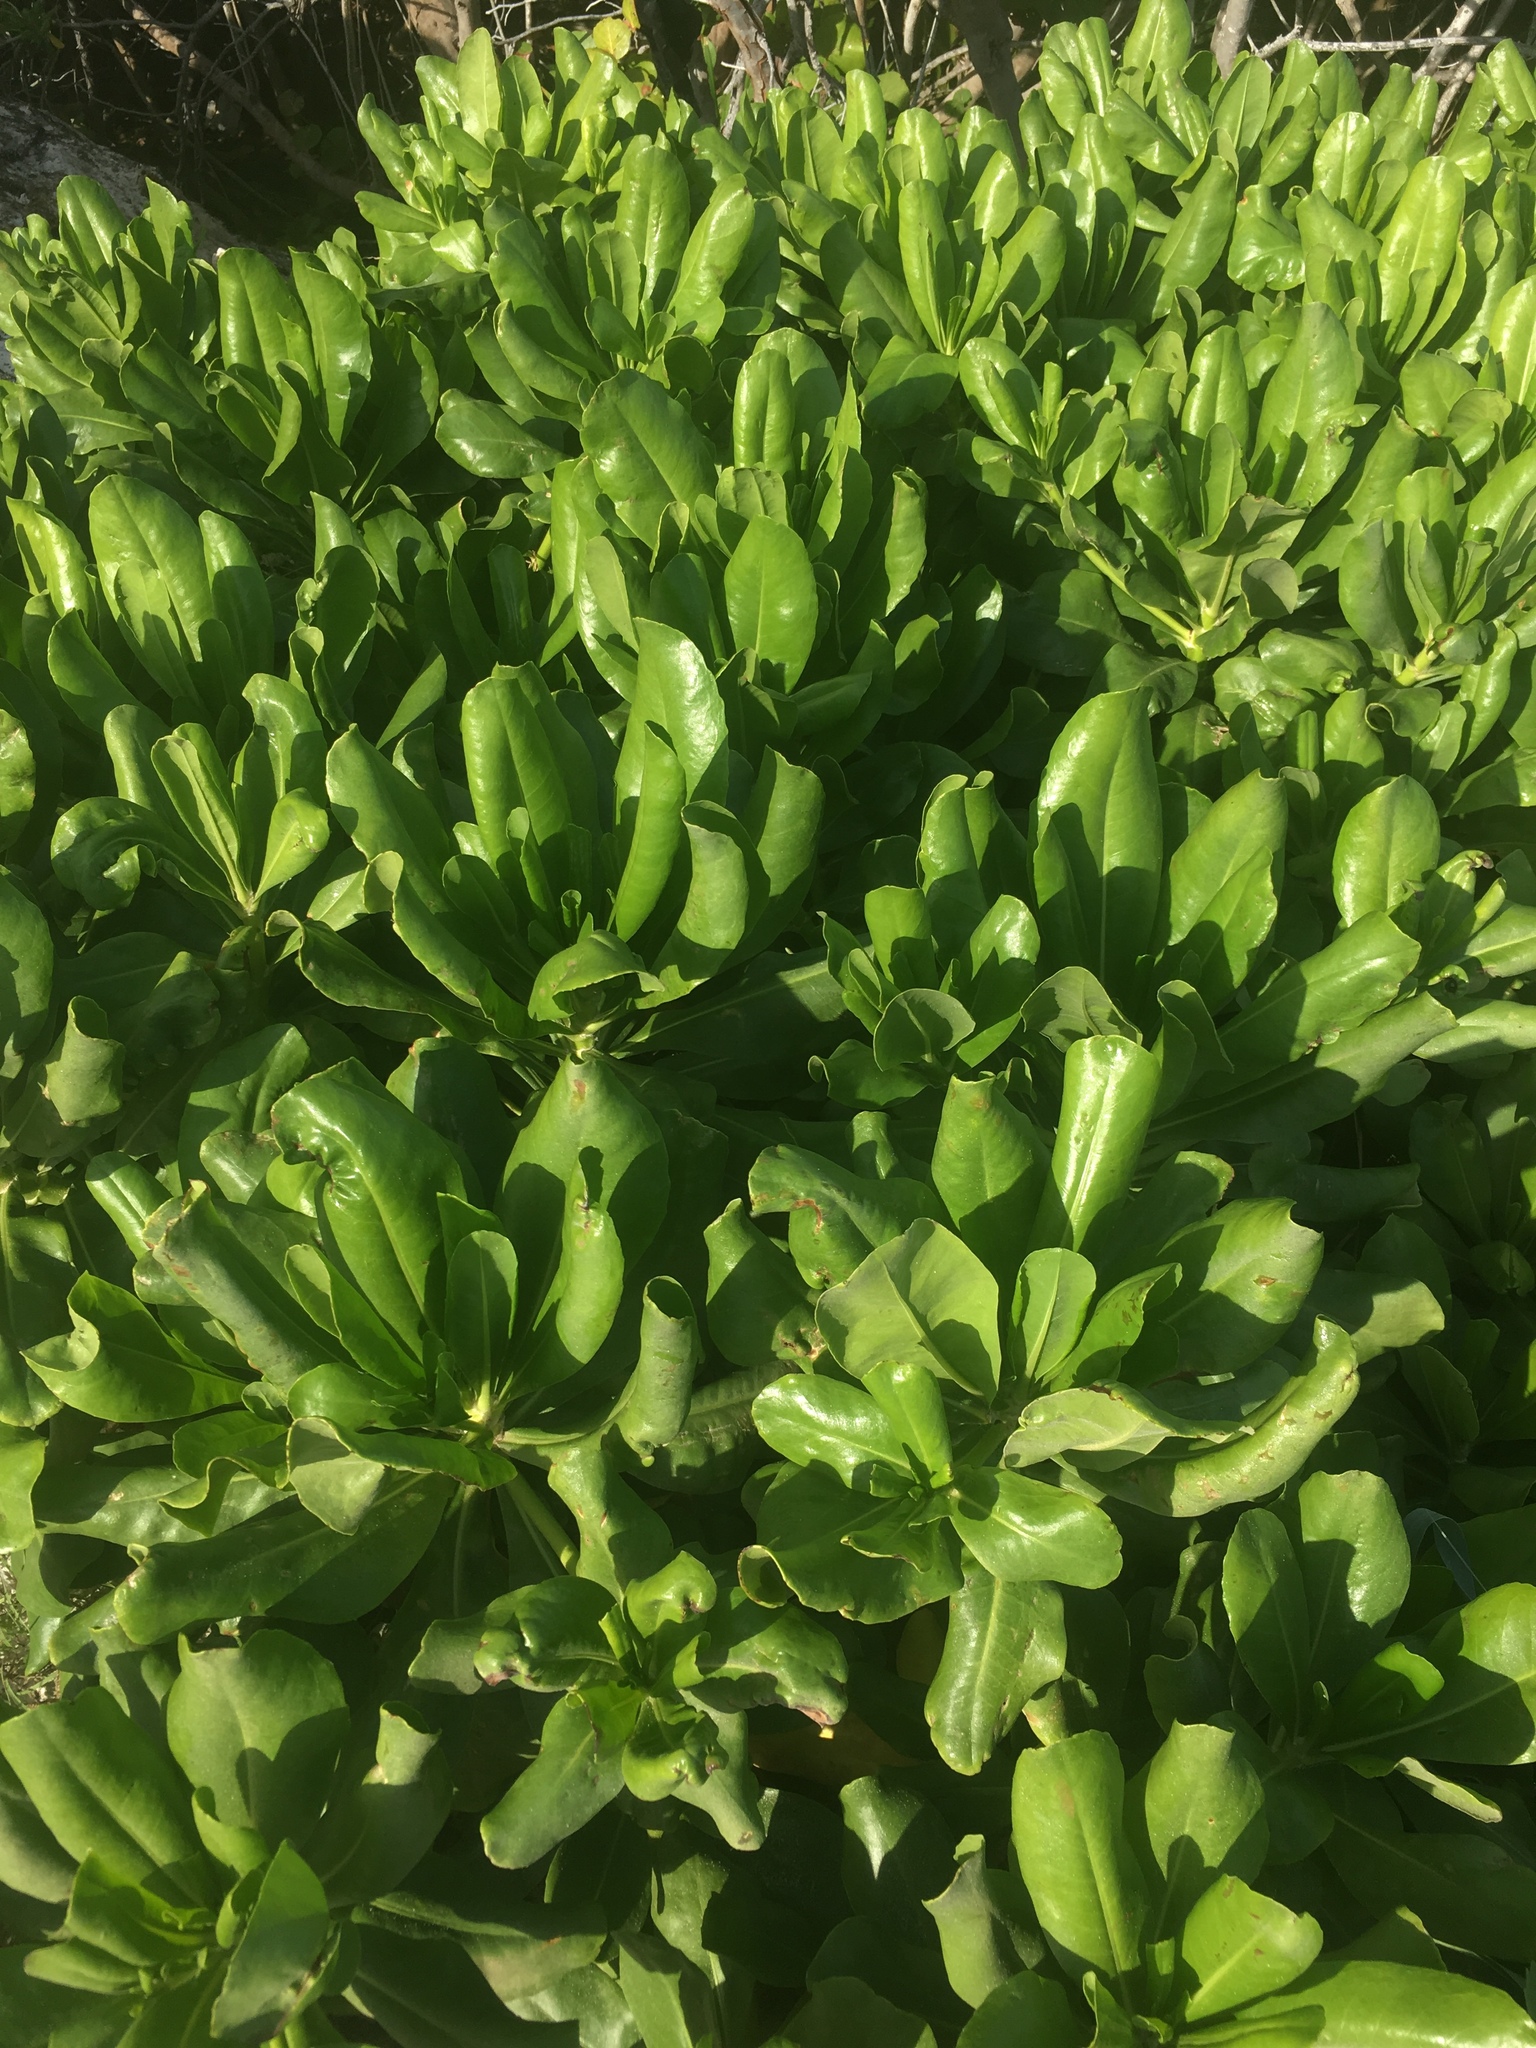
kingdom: Plantae
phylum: Tracheophyta
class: Magnoliopsida
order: Asterales
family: Goodeniaceae
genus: Scaevola
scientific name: Scaevola taccada
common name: Sea lettucetree
